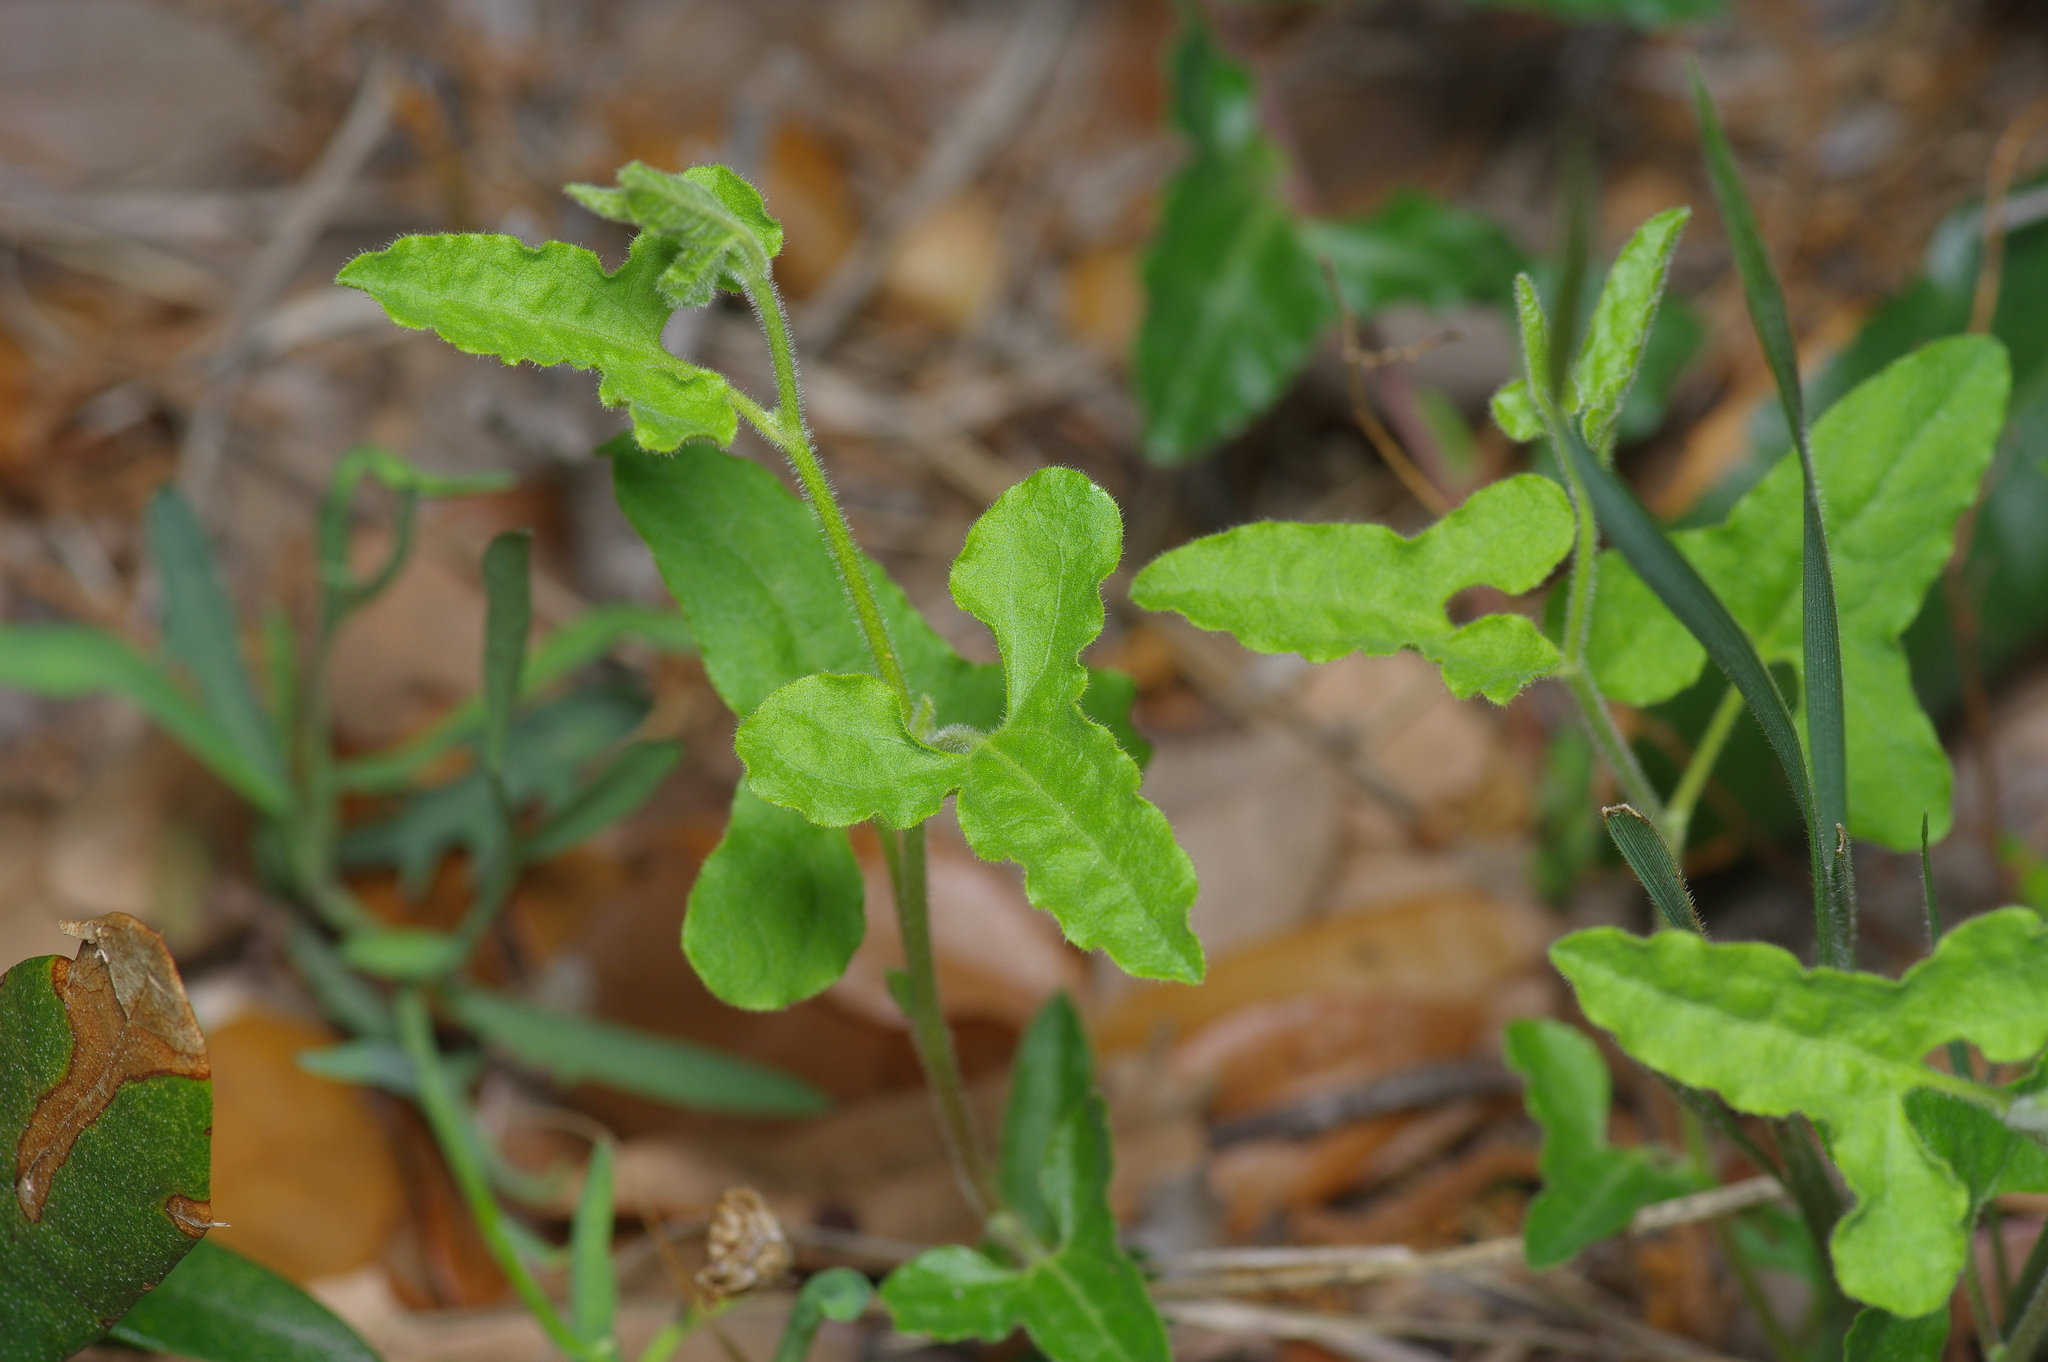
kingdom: Plantae
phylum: Tracheophyta
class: Magnoliopsida
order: Piperales
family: Aristolochiaceae
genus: Aristolochia
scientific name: Aristolochia coryi
